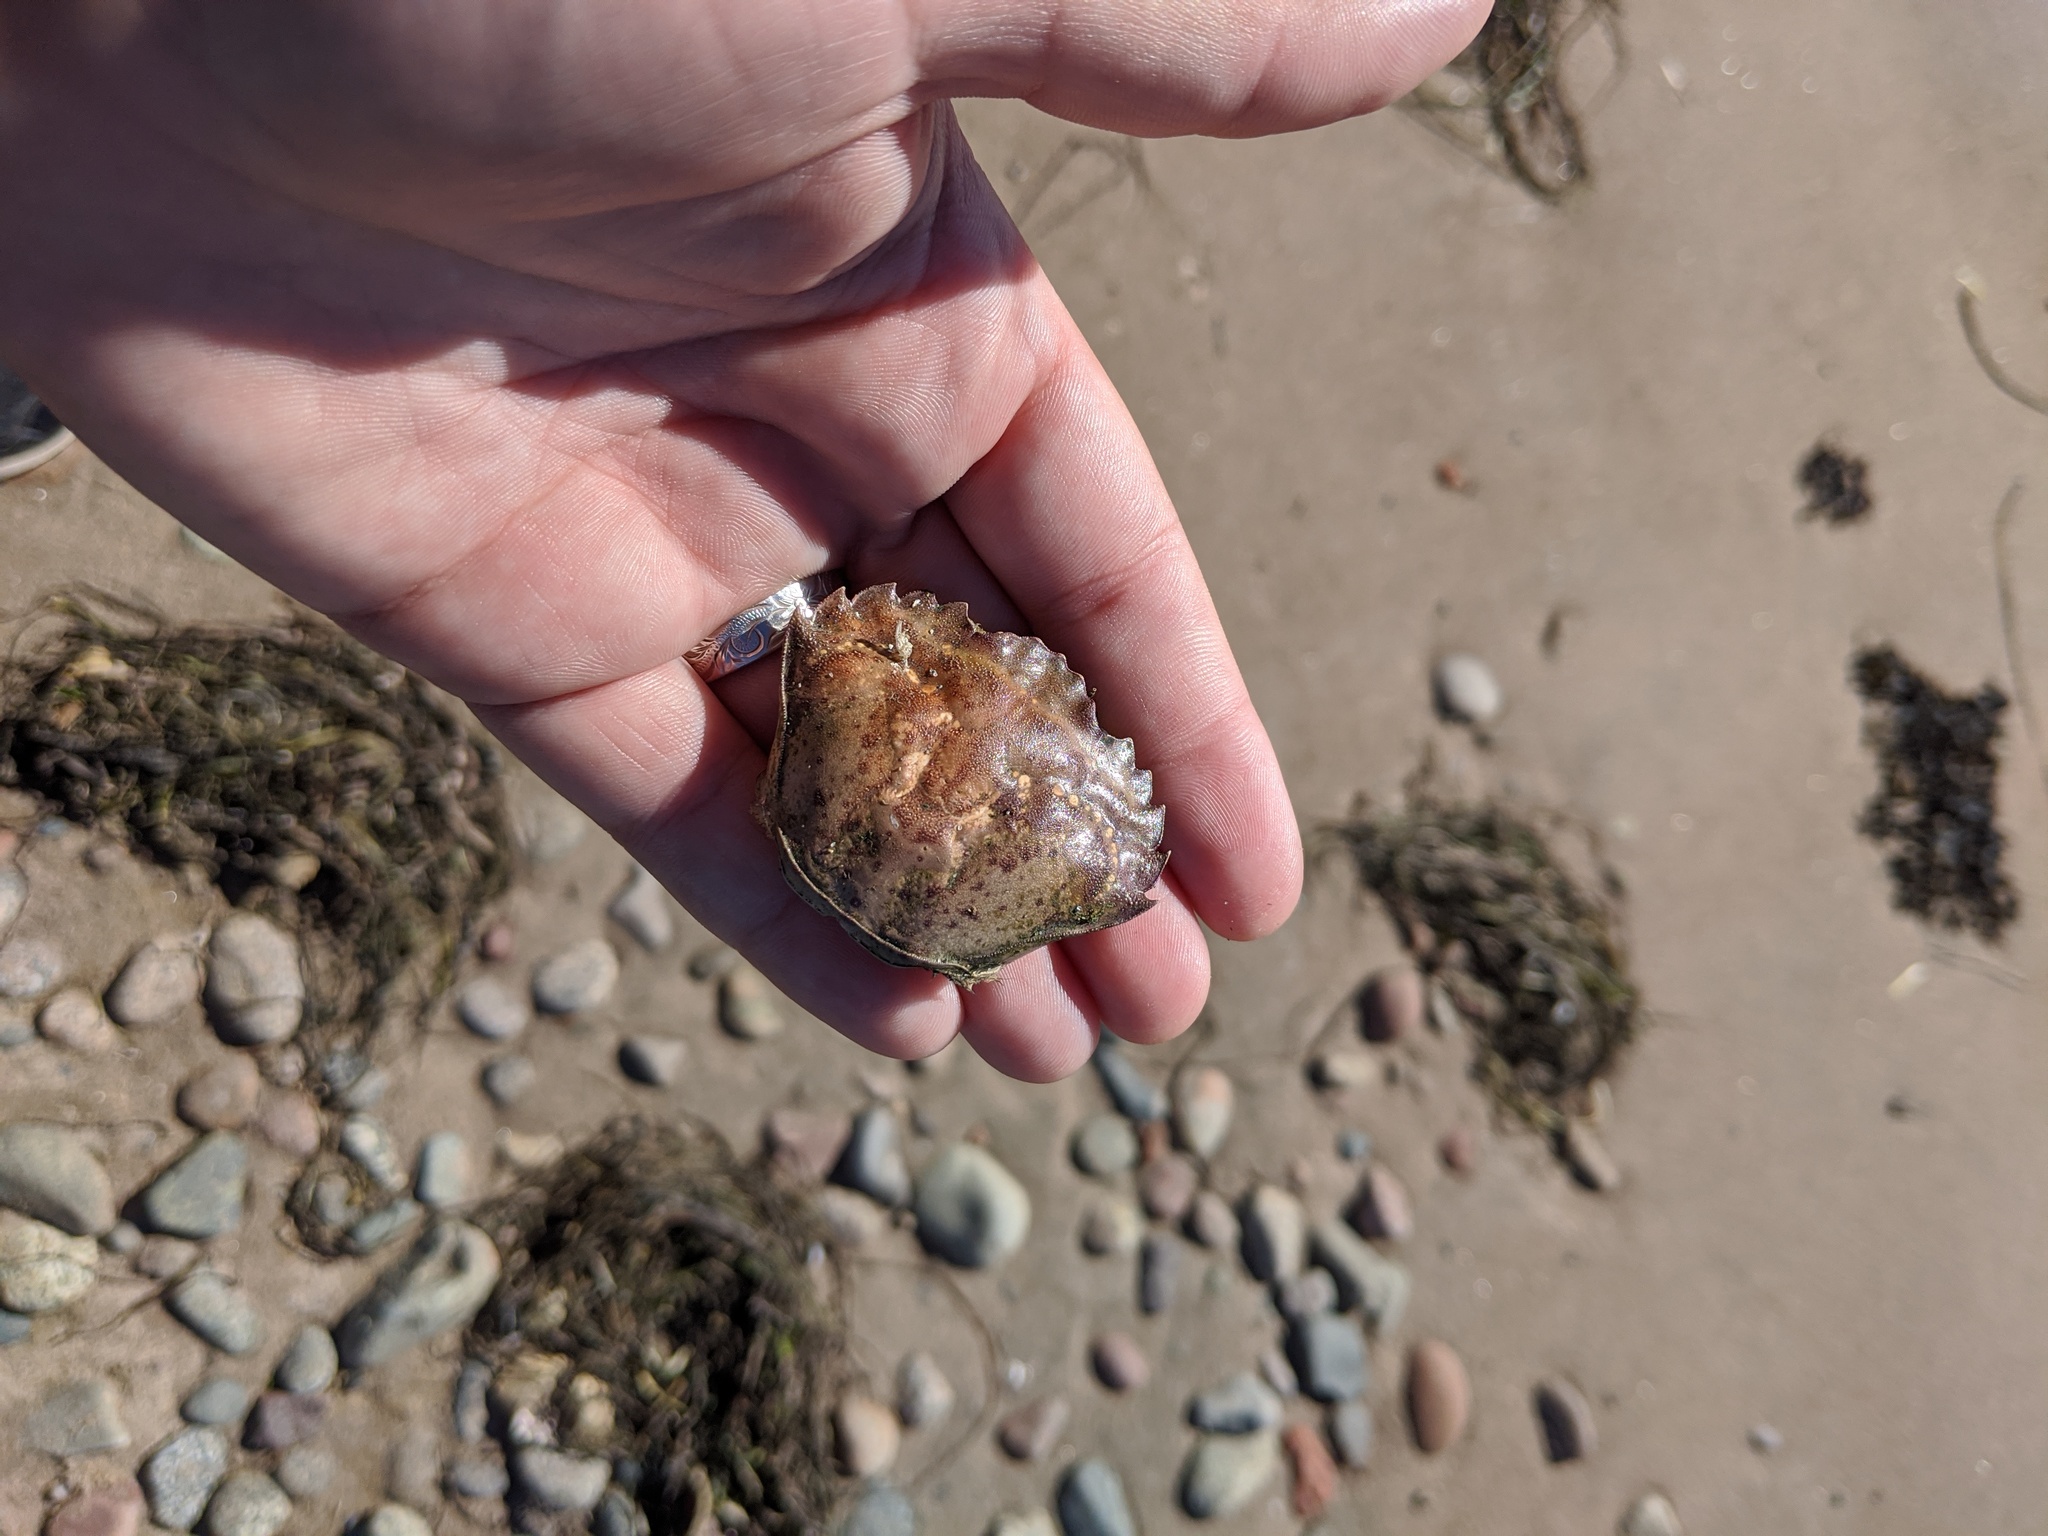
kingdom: Animalia
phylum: Arthropoda
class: Malacostraca
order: Decapoda
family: Carcinidae
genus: Carcinus
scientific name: Carcinus maenas
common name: European green crab
